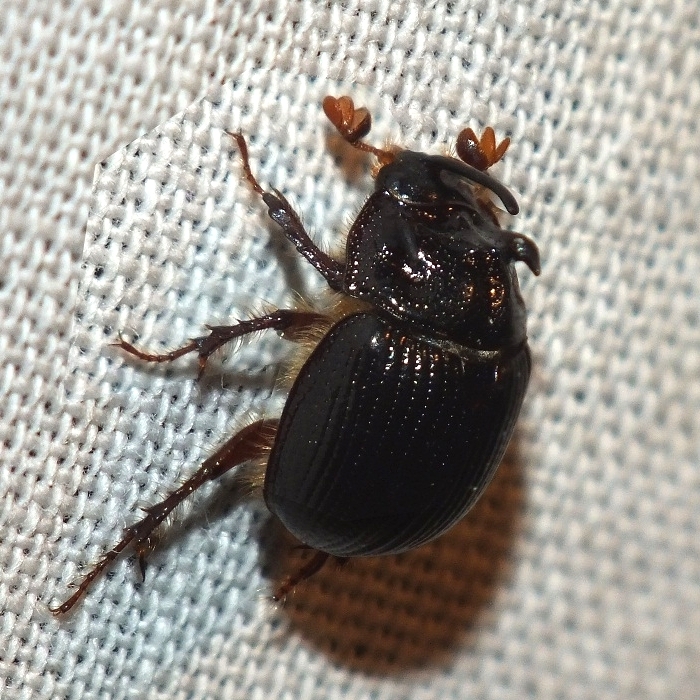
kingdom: Animalia
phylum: Arthropoda
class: Insecta
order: Coleoptera
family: Geotrupidae
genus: Odonteus
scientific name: Odonteus armiger
